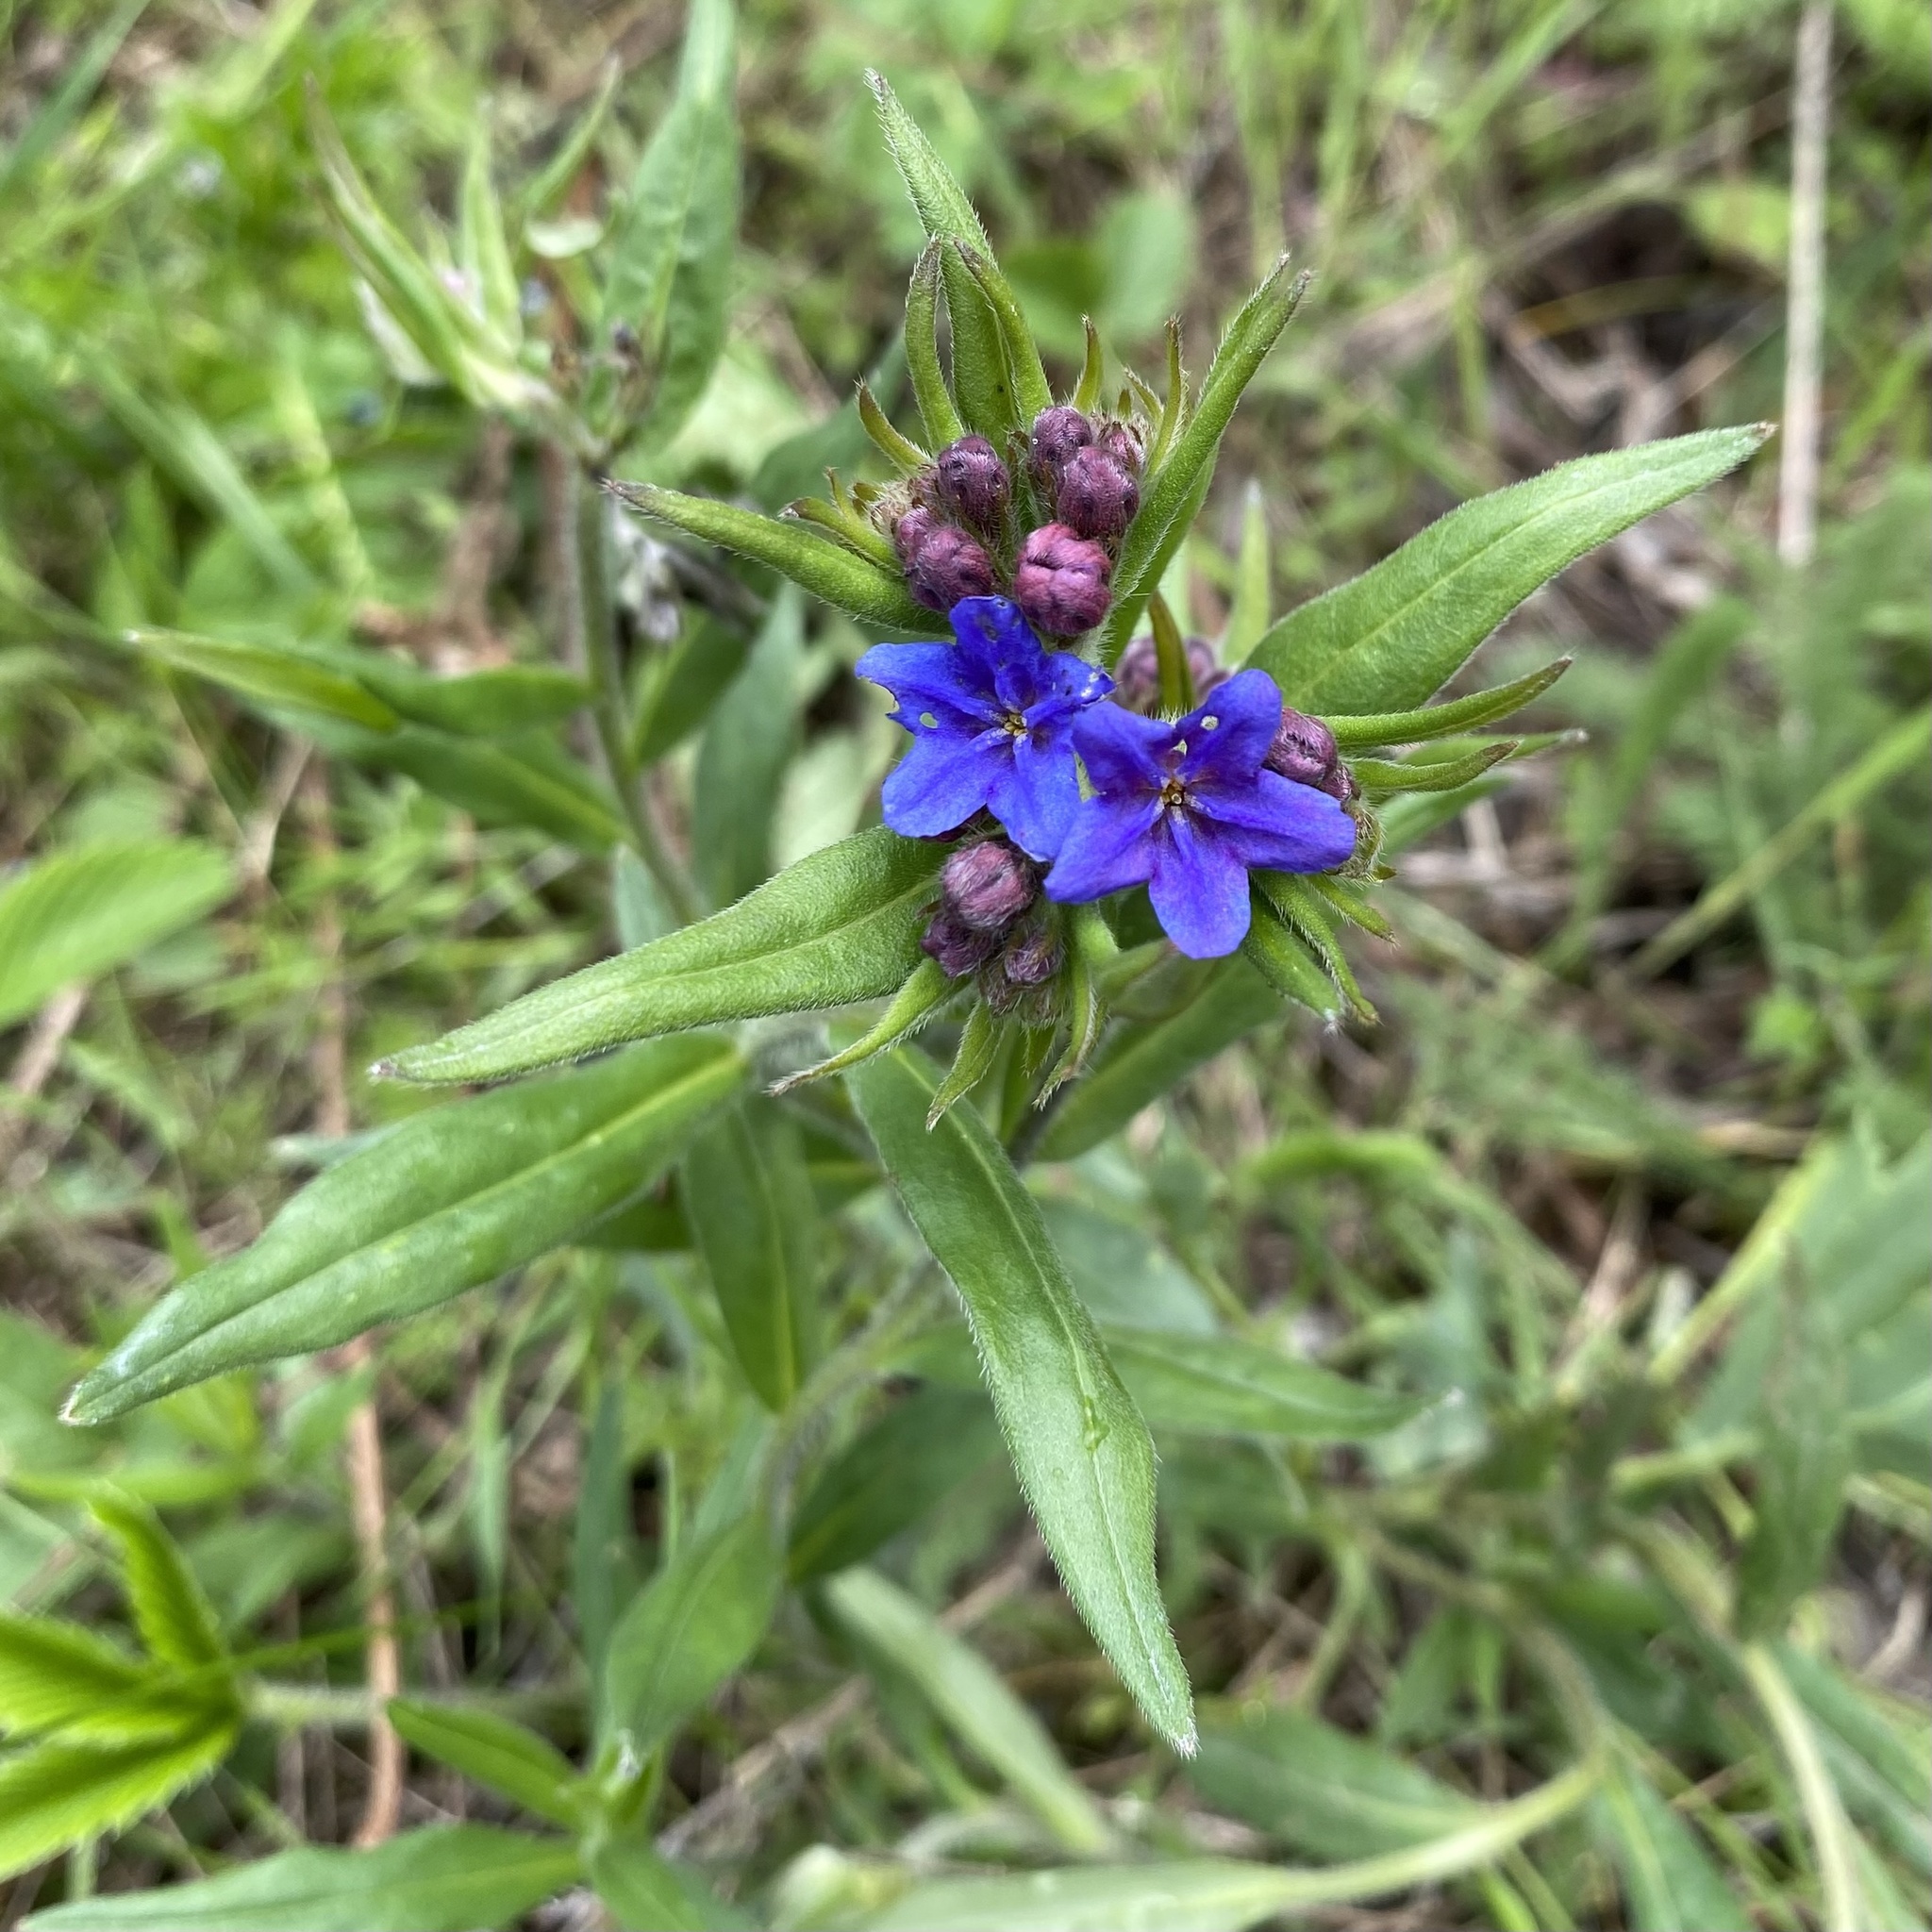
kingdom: Plantae
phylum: Tracheophyta
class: Magnoliopsida
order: Boraginales
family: Boraginaceae
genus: Aegonychon
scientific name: Aegonychon purpurocaeruleum
